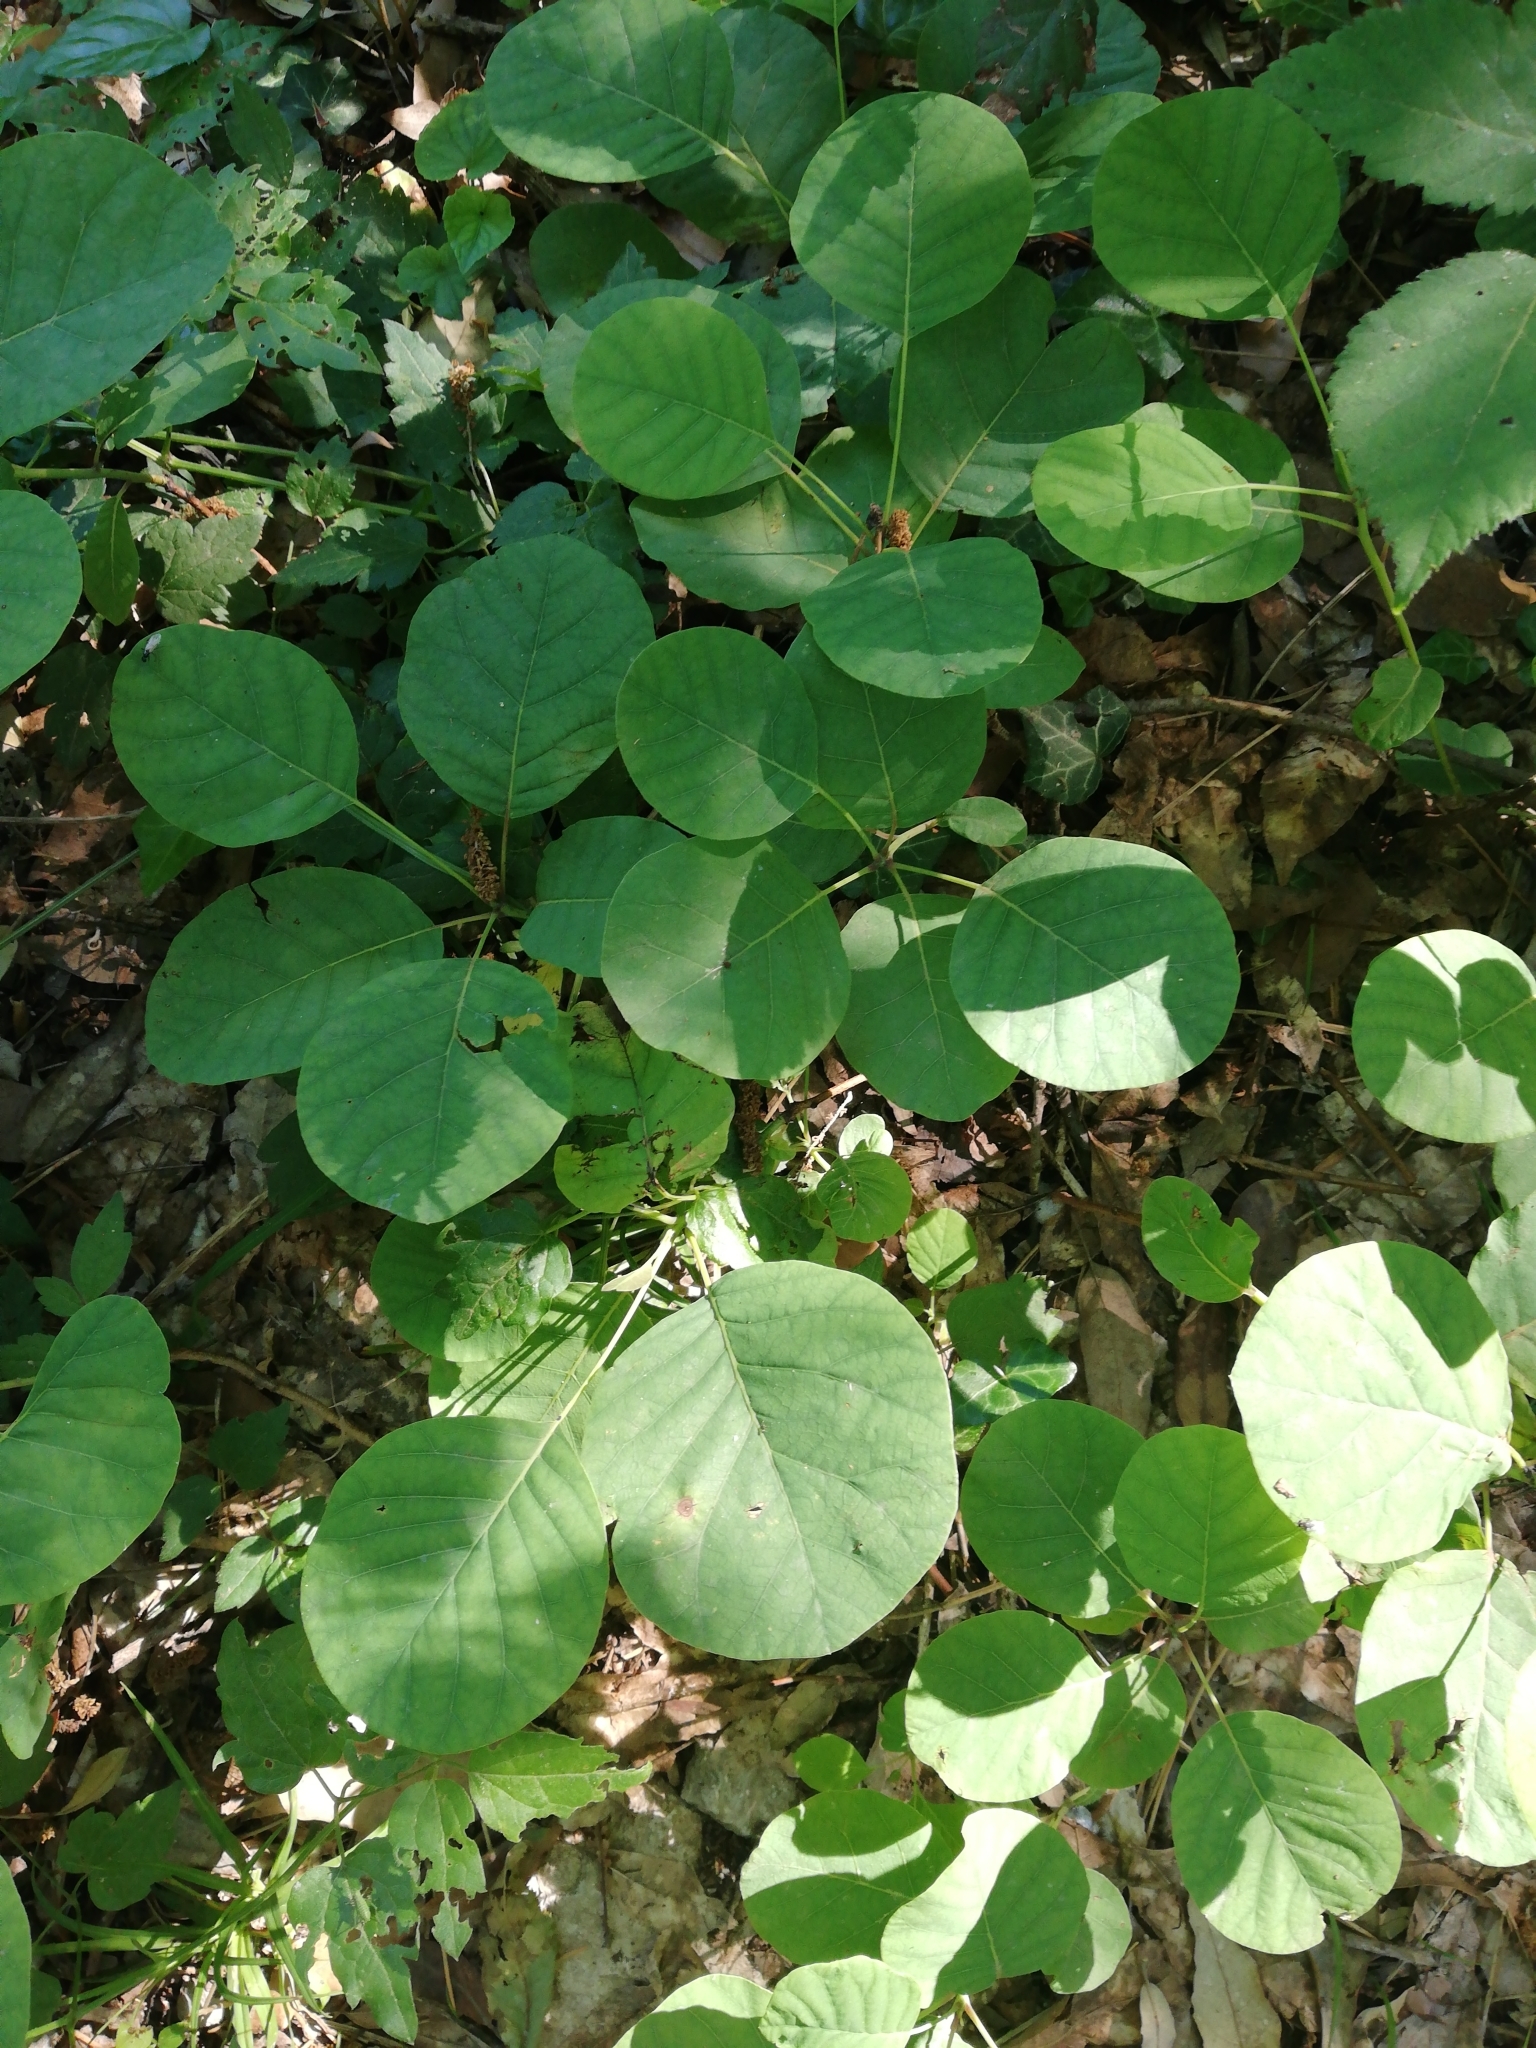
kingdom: Plantae
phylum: Tracheophyta
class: Magnoliopsida
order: Sapindales
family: Anacardiaceae
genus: Cotinus
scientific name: Cotinus coggygria
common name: Smoke-tree
